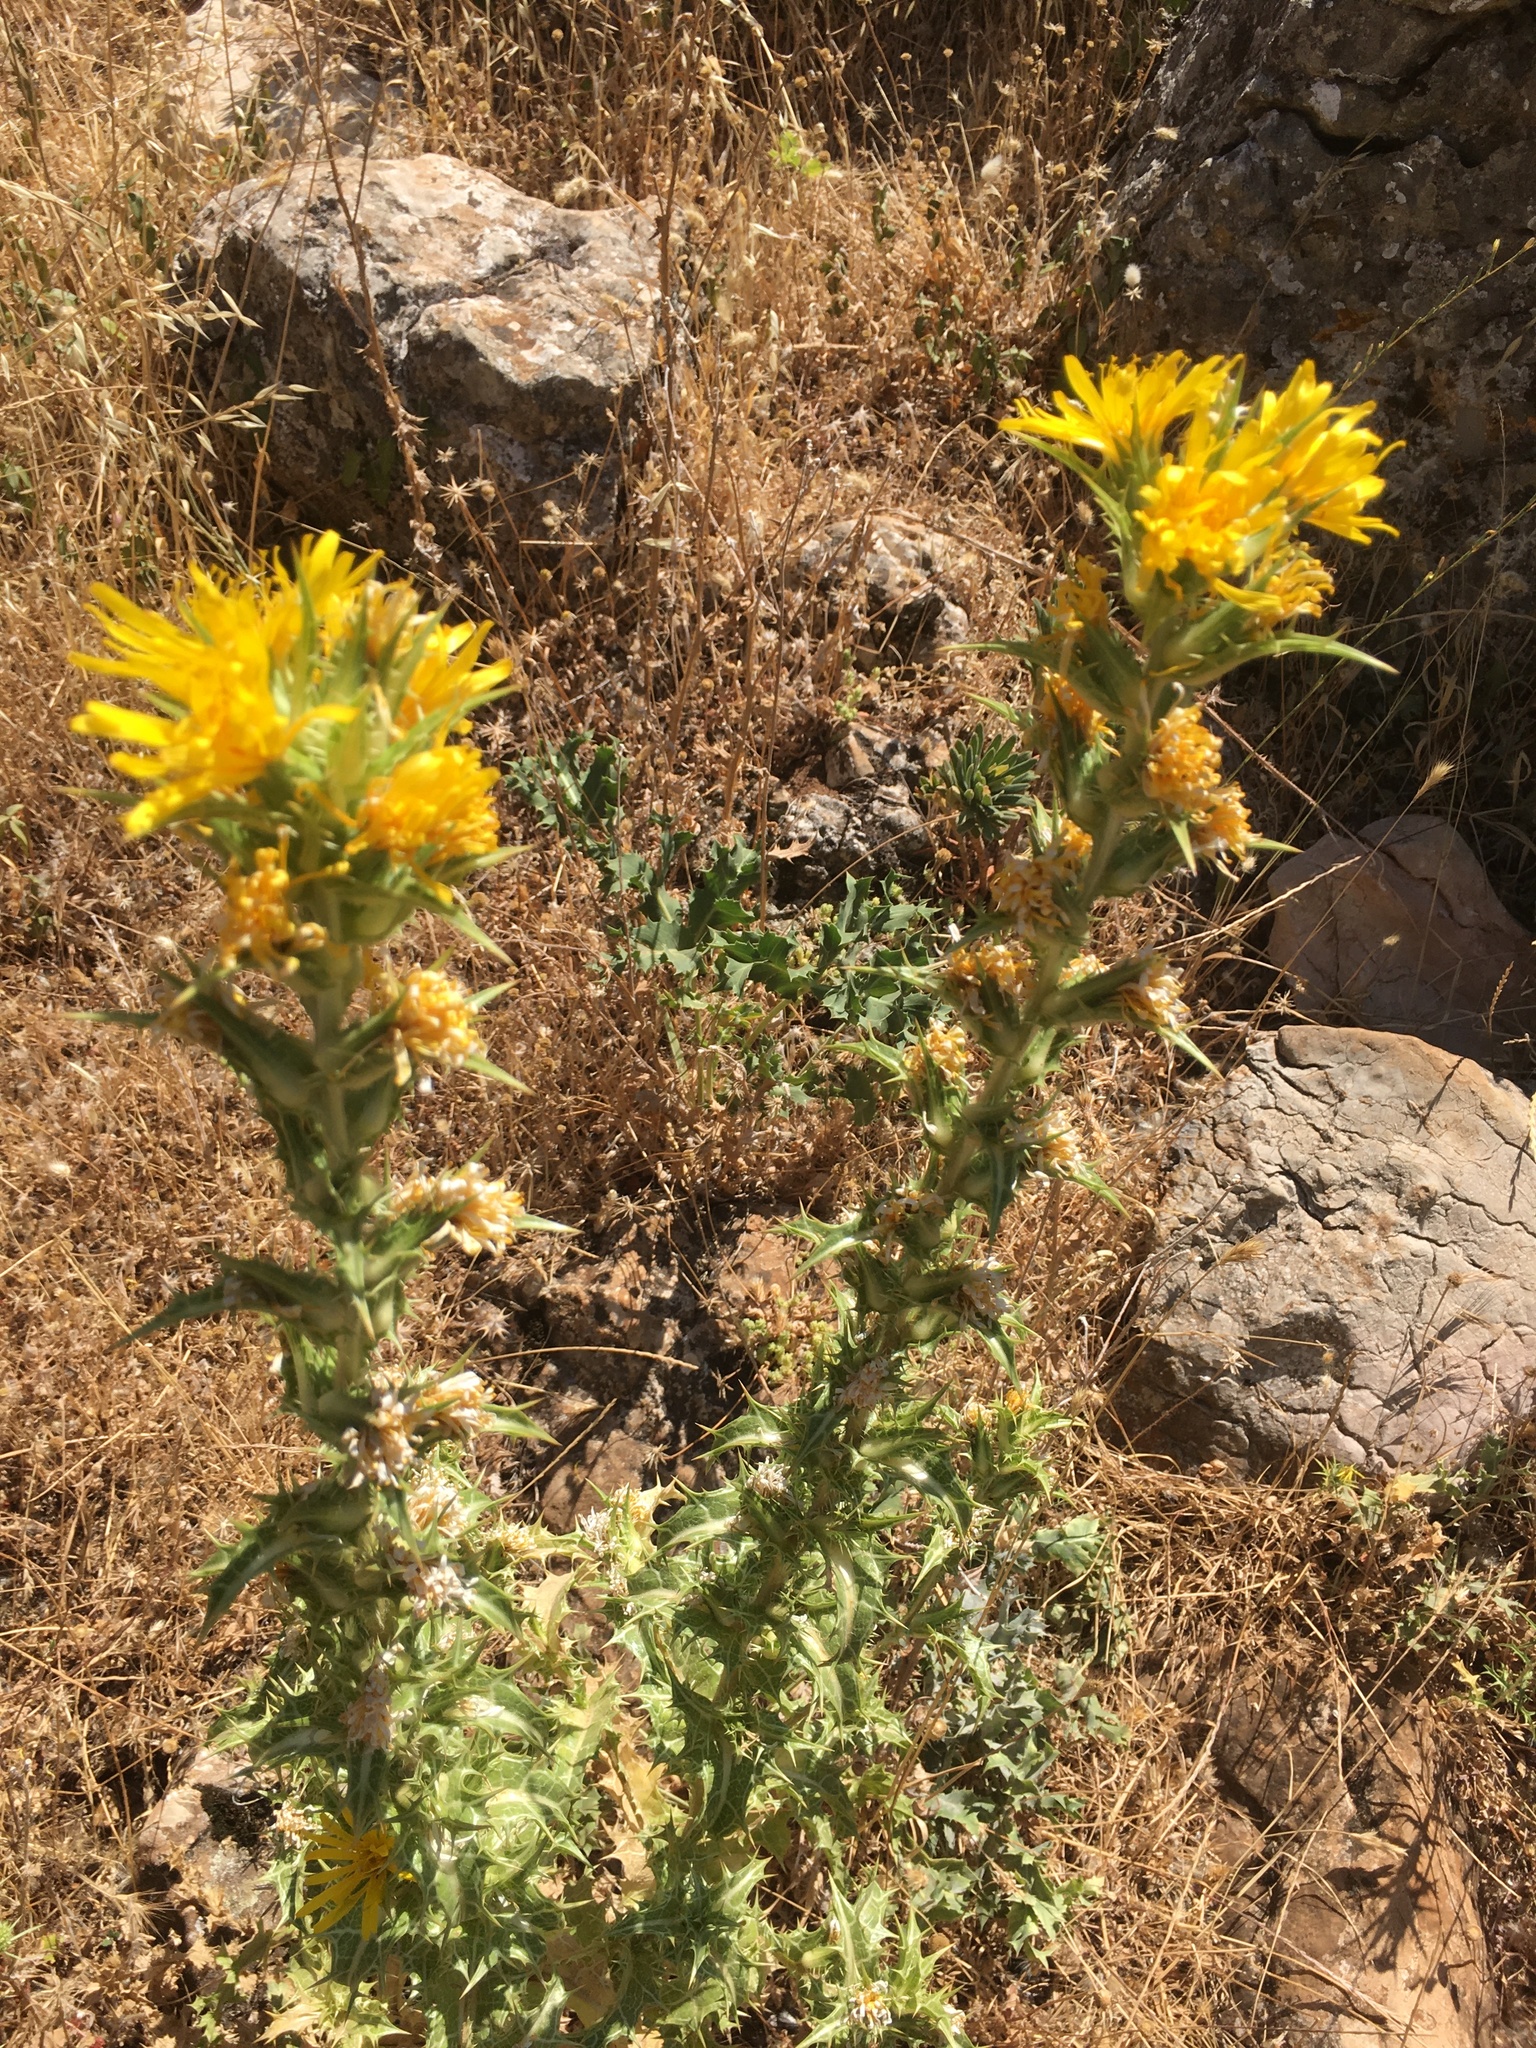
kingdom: Plantae
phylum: Tracheophyta
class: Magnoliopsida
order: Asterales
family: Asteraceae
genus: Scolymus
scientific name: Scolymus hispanicus
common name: Golden thistle
